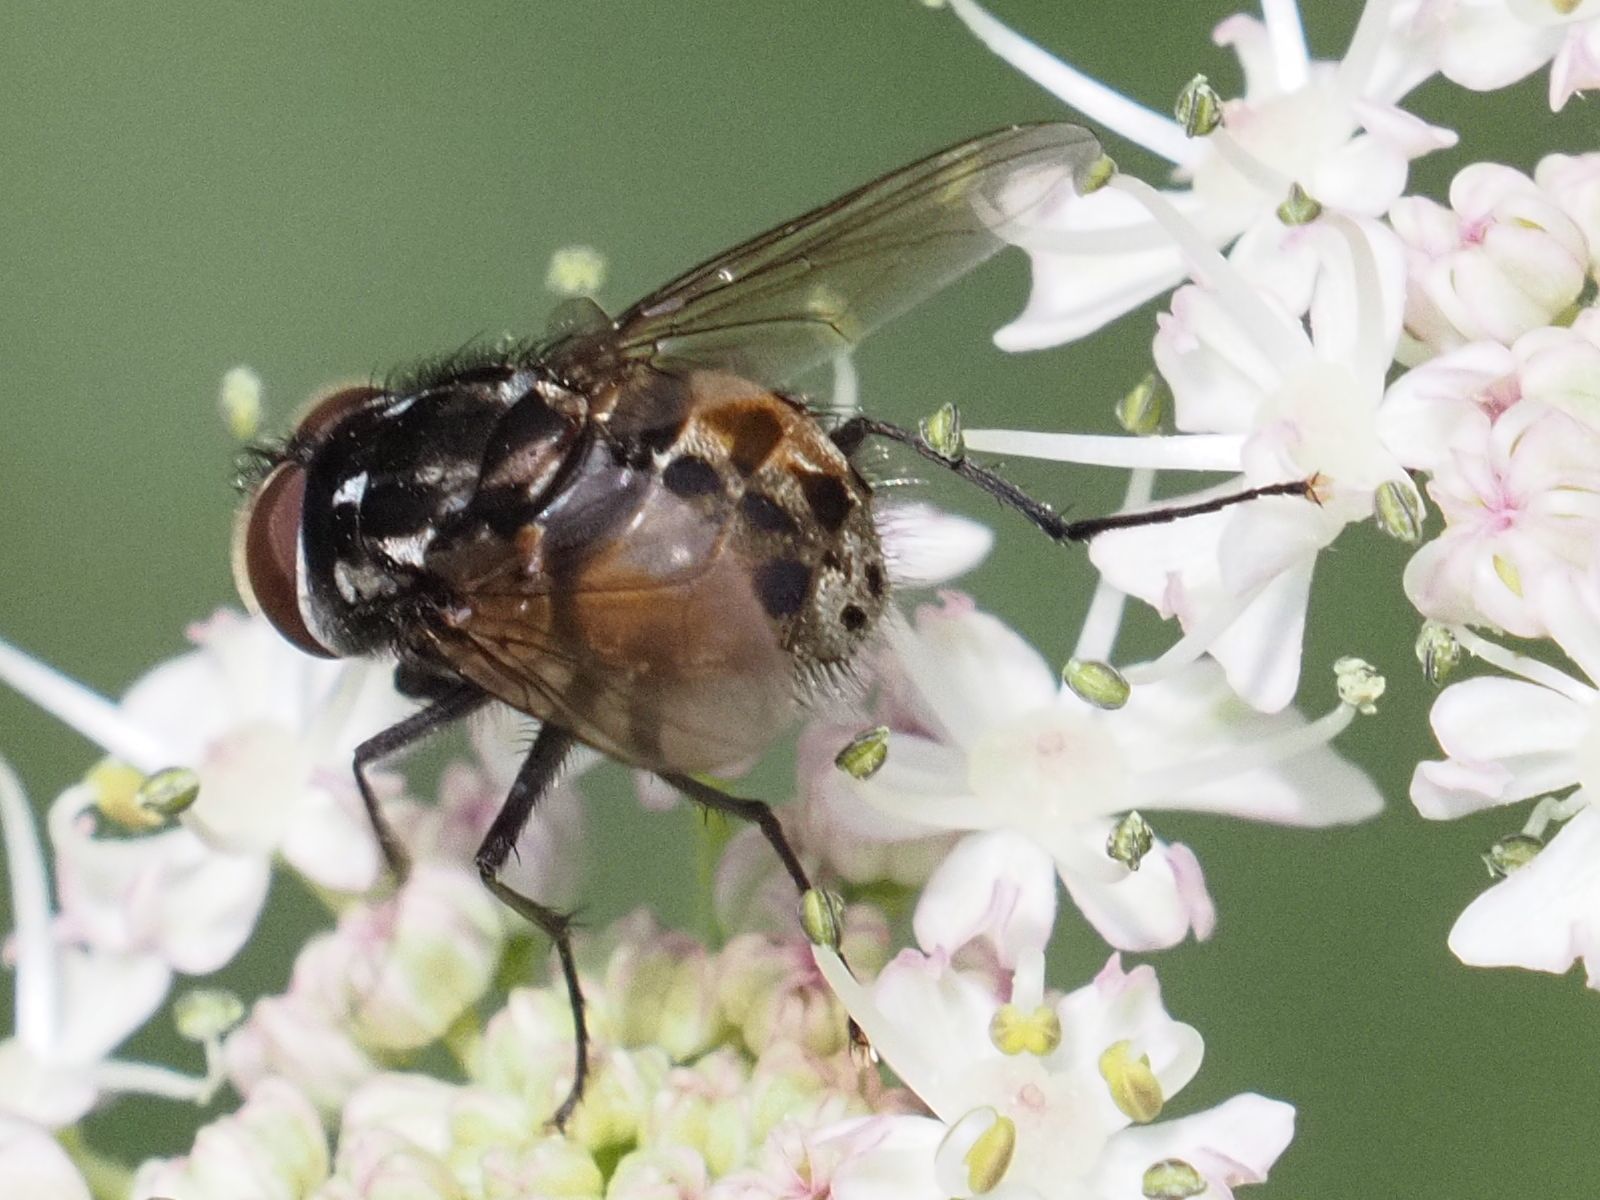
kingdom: Animalia
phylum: Arthropoda
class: Insecta
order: Diptera
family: Muscidae
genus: Graphomya
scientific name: Graphomya maculata
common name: Muscid fly
